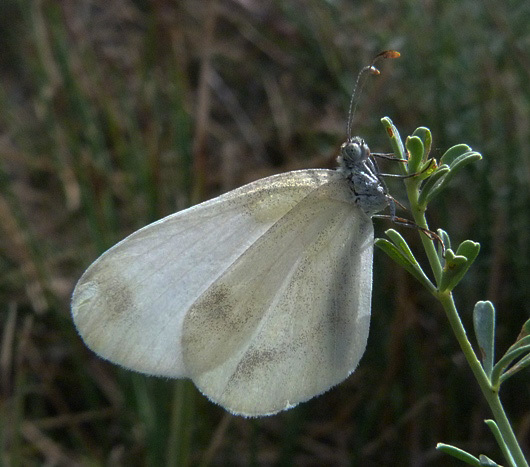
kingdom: Animalia
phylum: Arthropoda
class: Insecta
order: Lepidoptera
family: Pieridae
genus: Leptidea
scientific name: Leptidea sinapis
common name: Wood white
